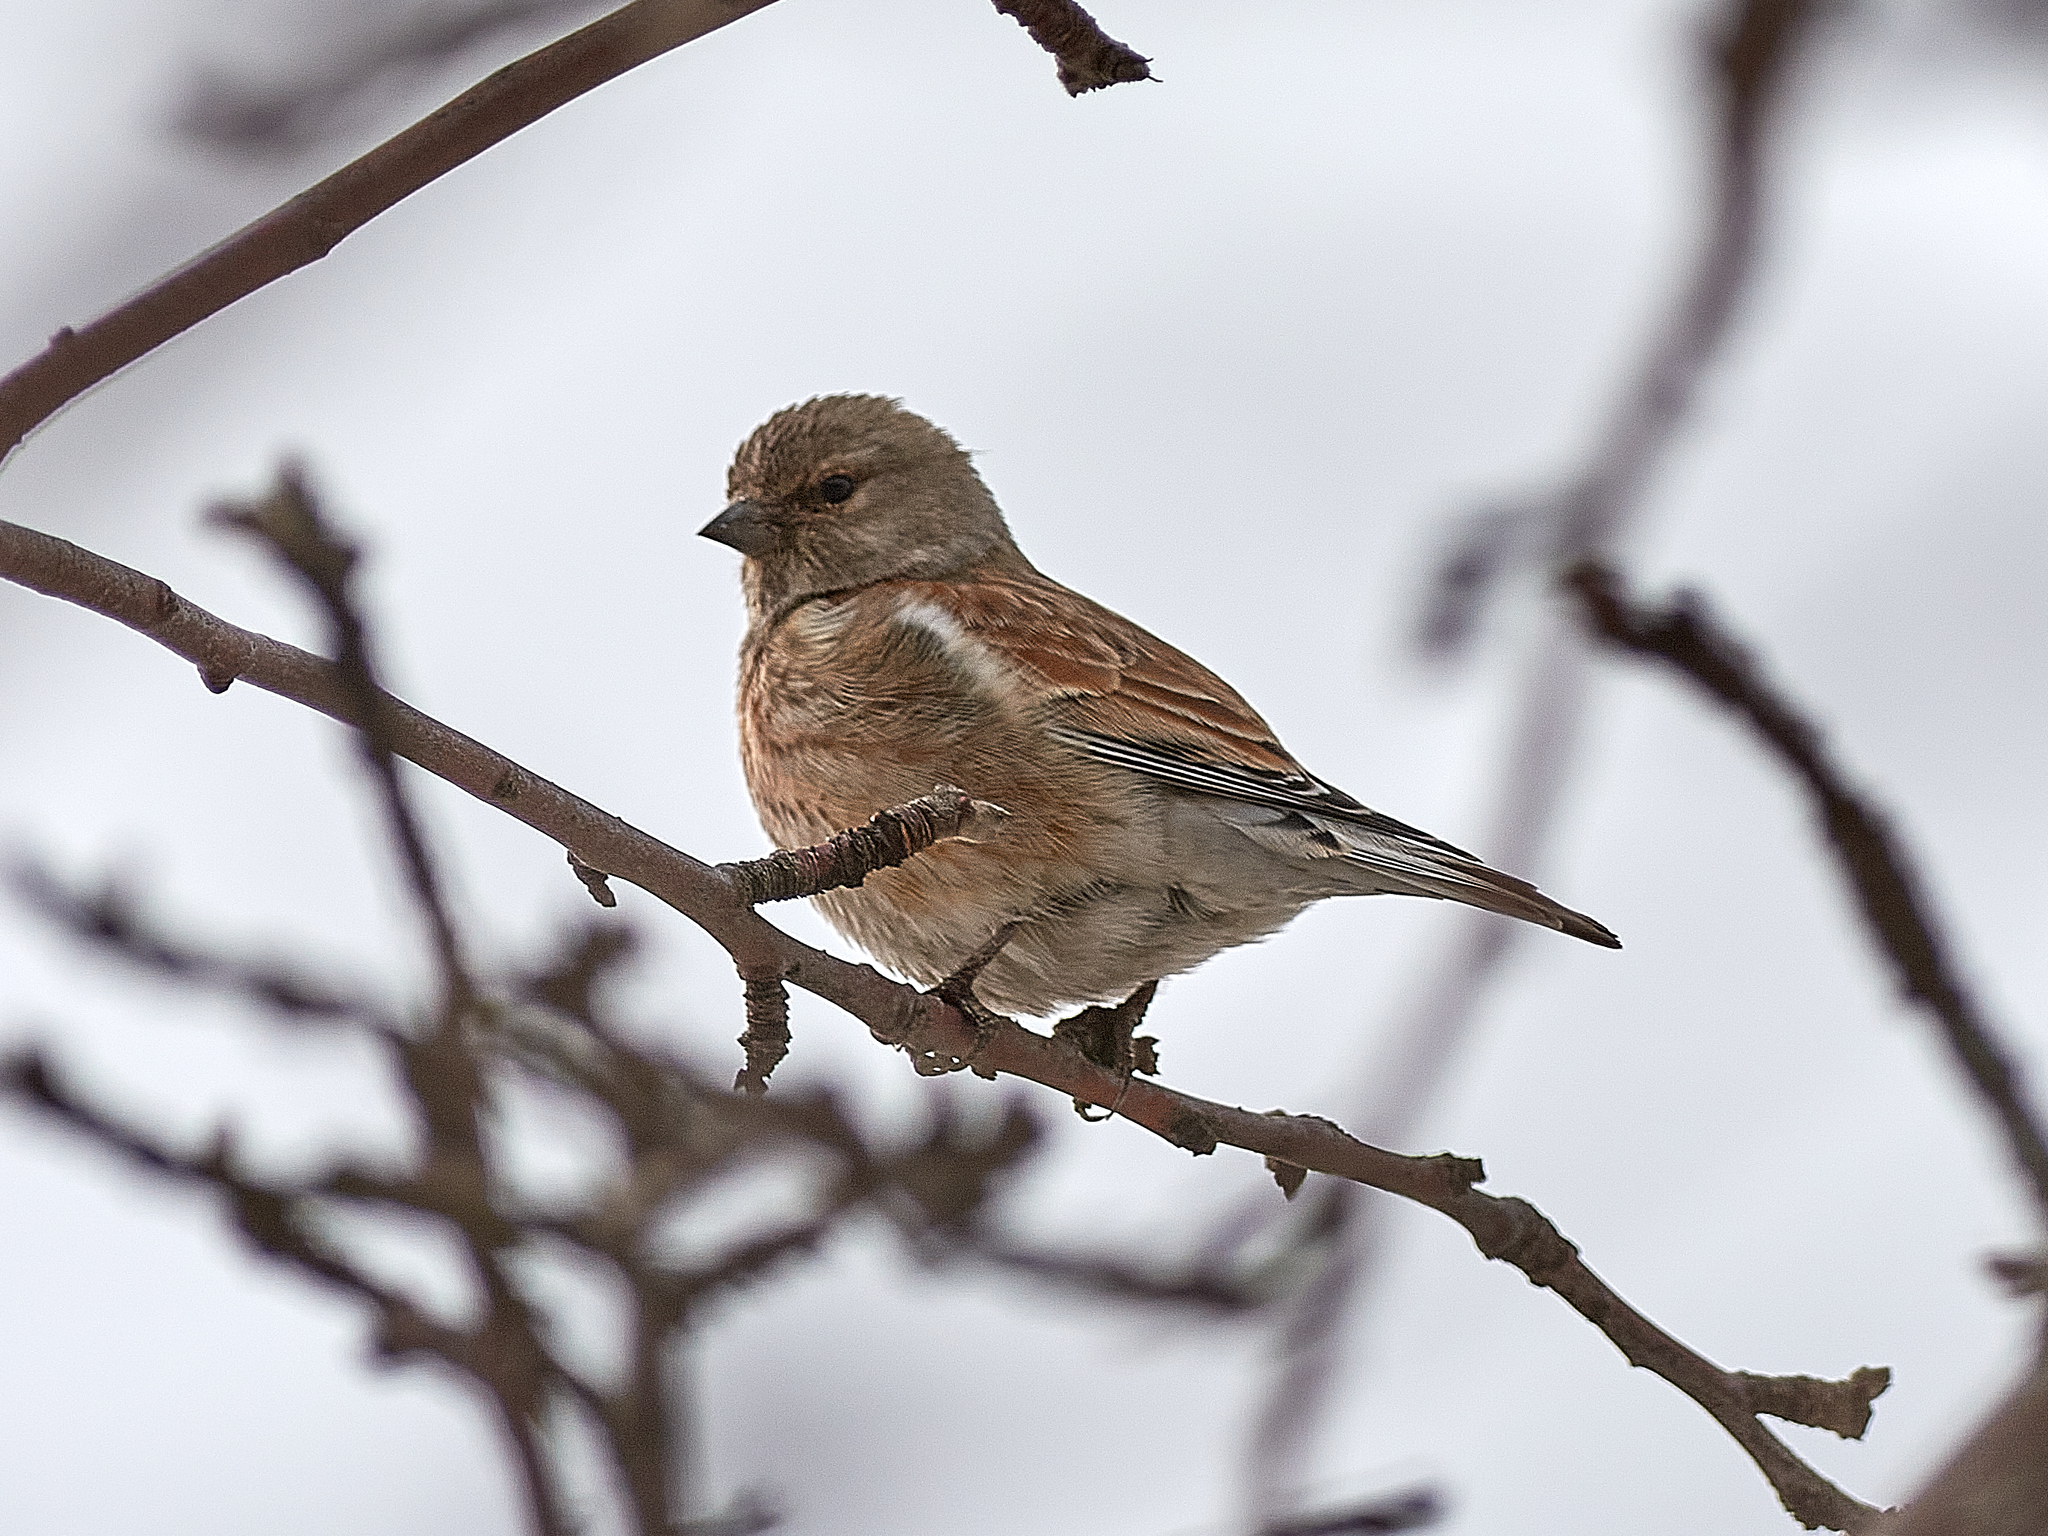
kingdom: Animalia
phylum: Chordata
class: Aves
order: Passeriformes
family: Fringillidae
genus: Linaria
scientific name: Linaria cannabina
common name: Common linnet
